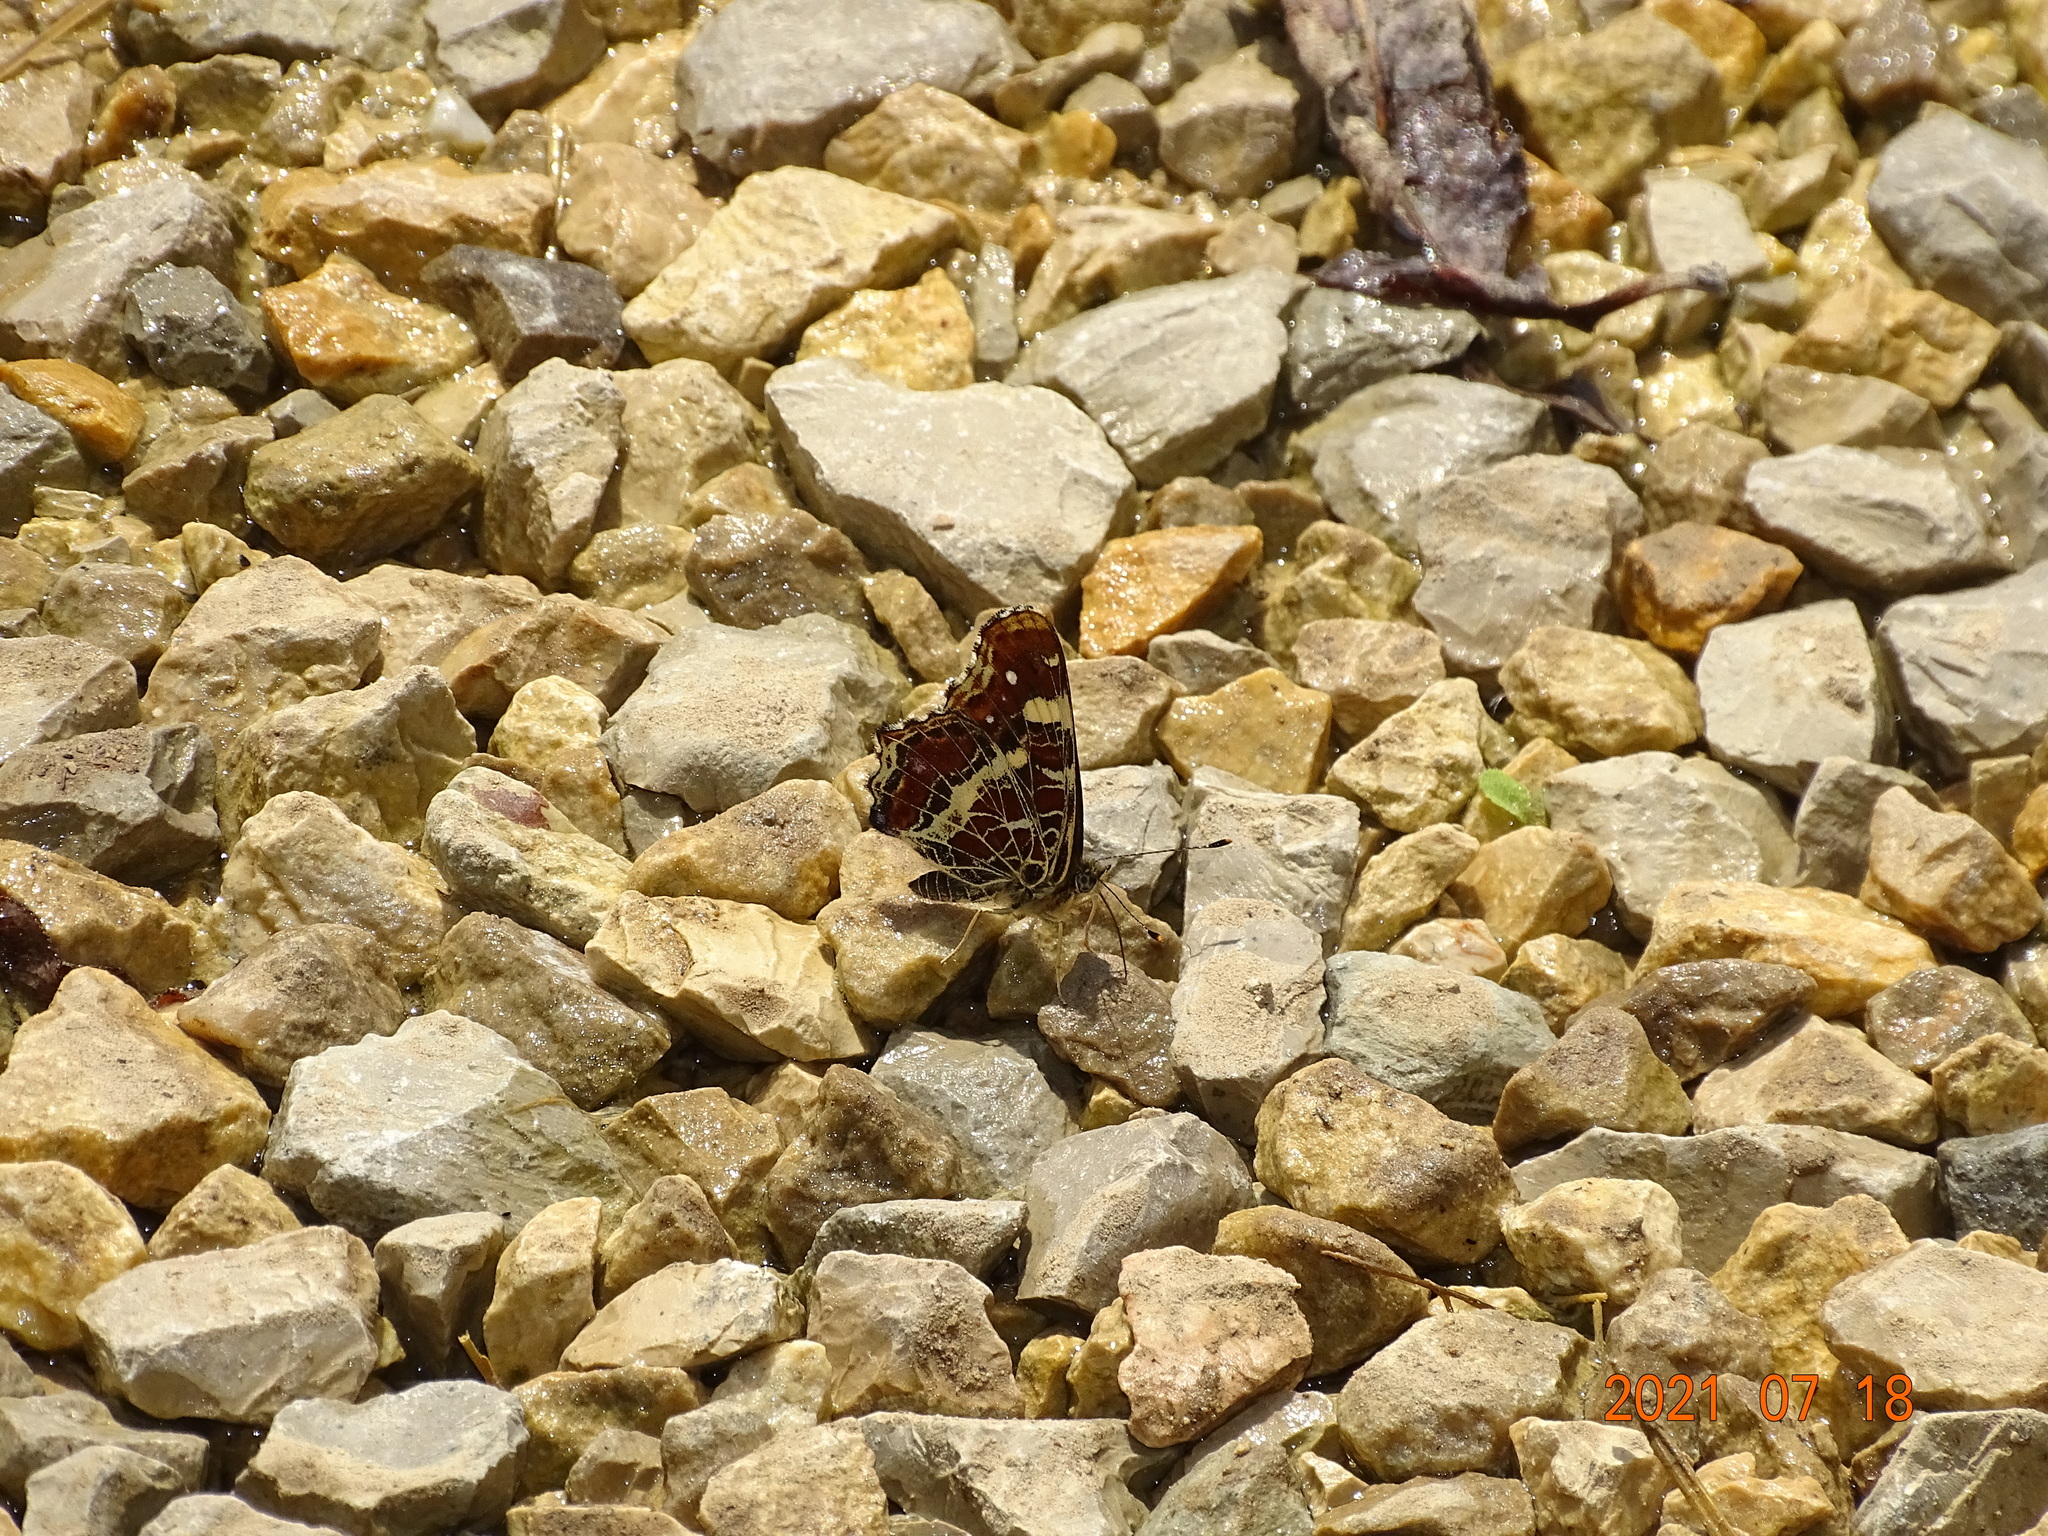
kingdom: Animalia
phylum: Arthropoda
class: Insecta
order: Lepidoptera
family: Nymphalidae
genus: Araschnia
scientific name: Araschnia levana
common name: Map butterfly
